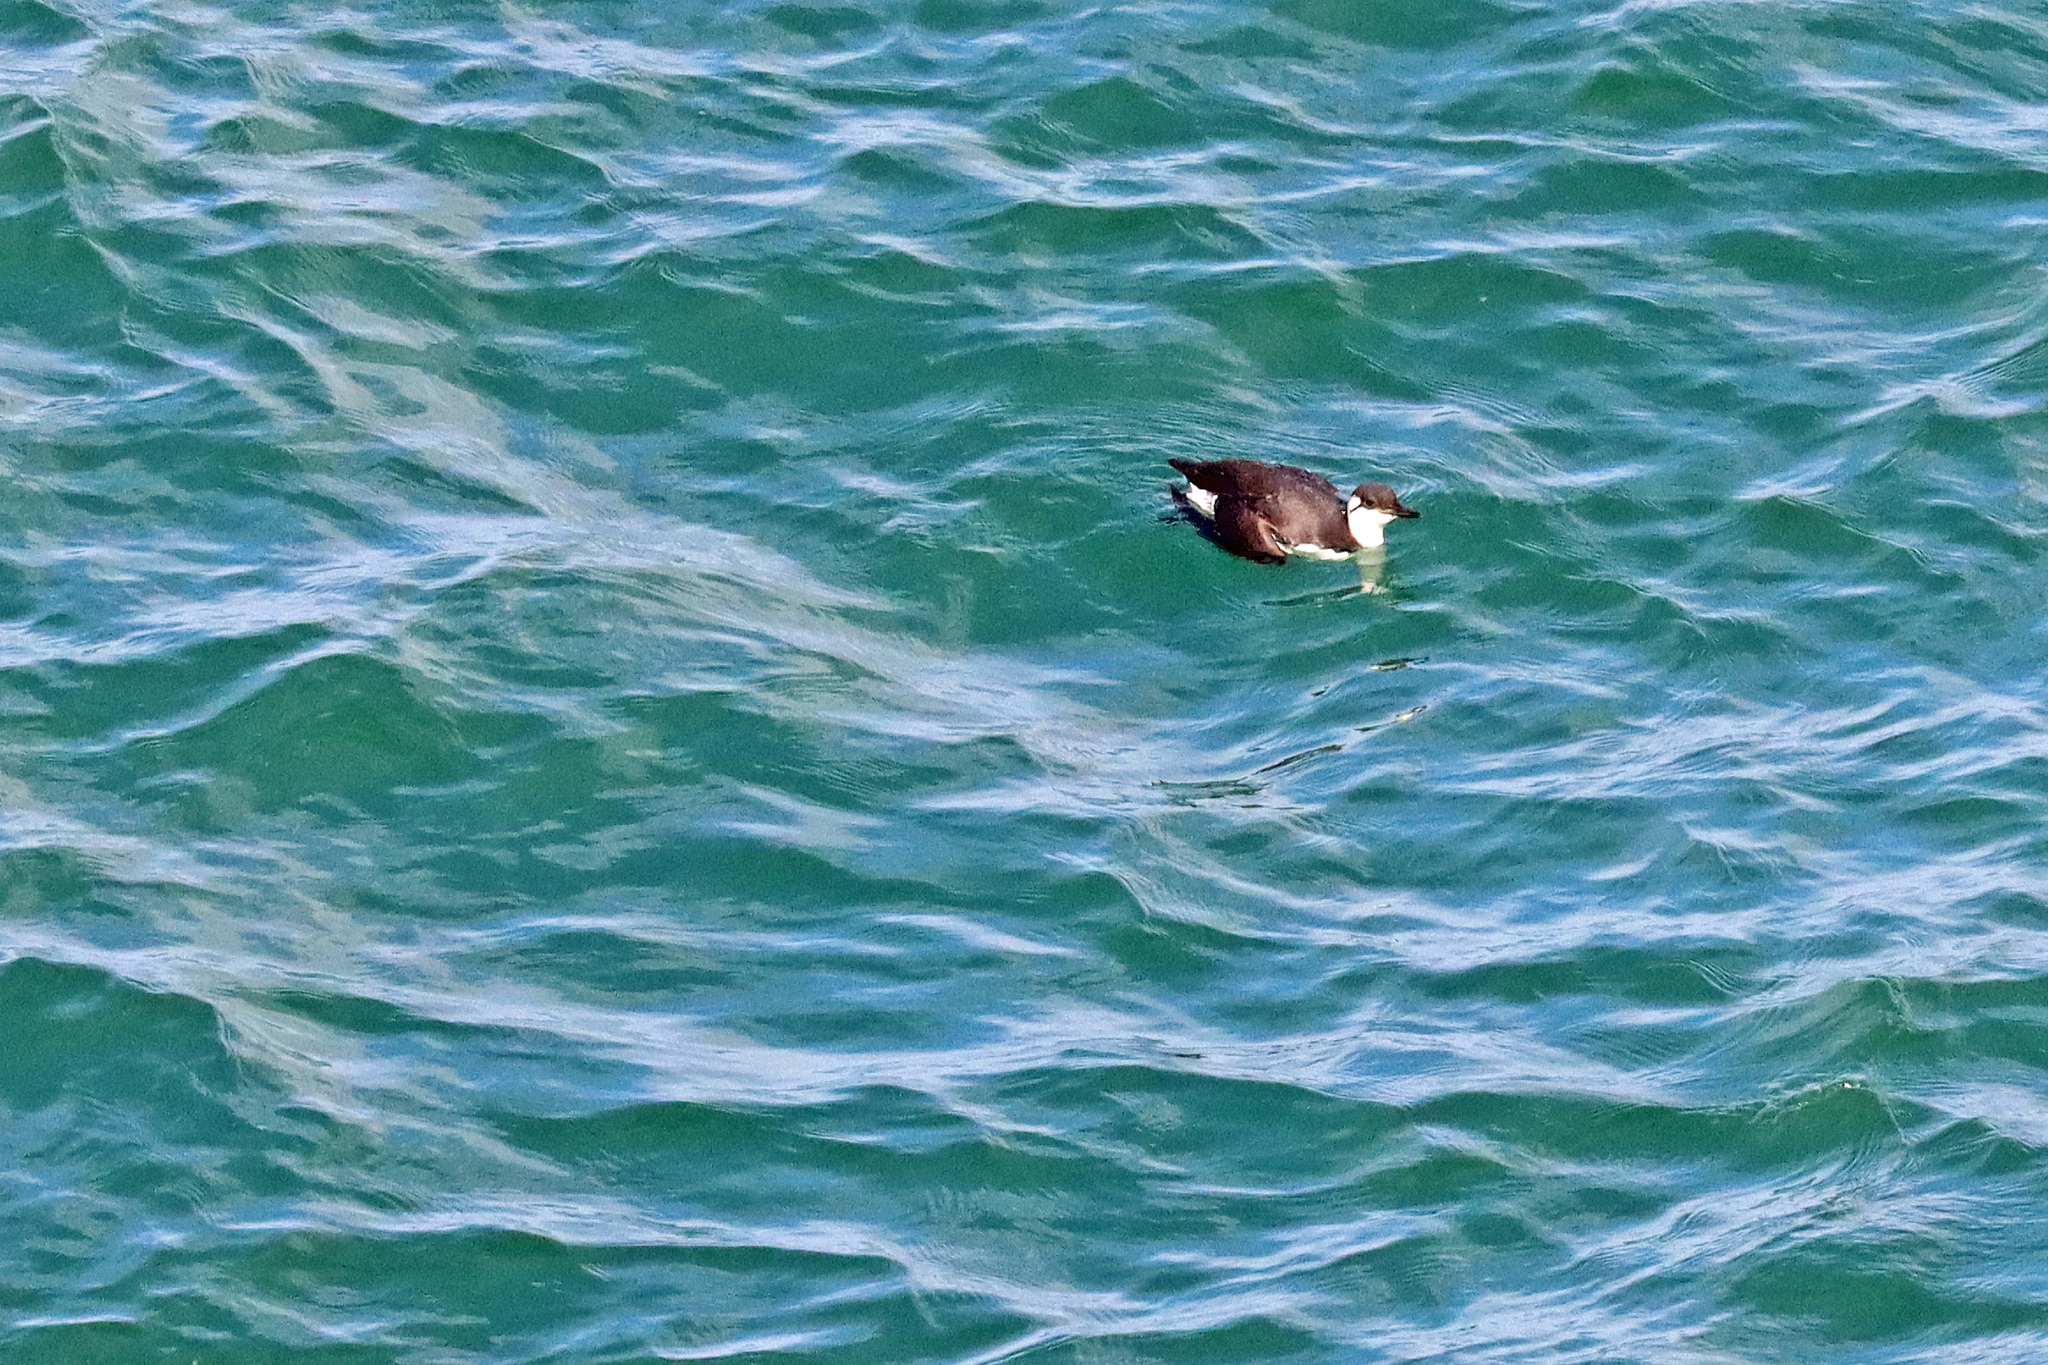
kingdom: Animalia
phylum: Chordata
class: Aves
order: Charadriiformes
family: Alcidae
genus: Uria
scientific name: Uria aalge
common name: Common murre
